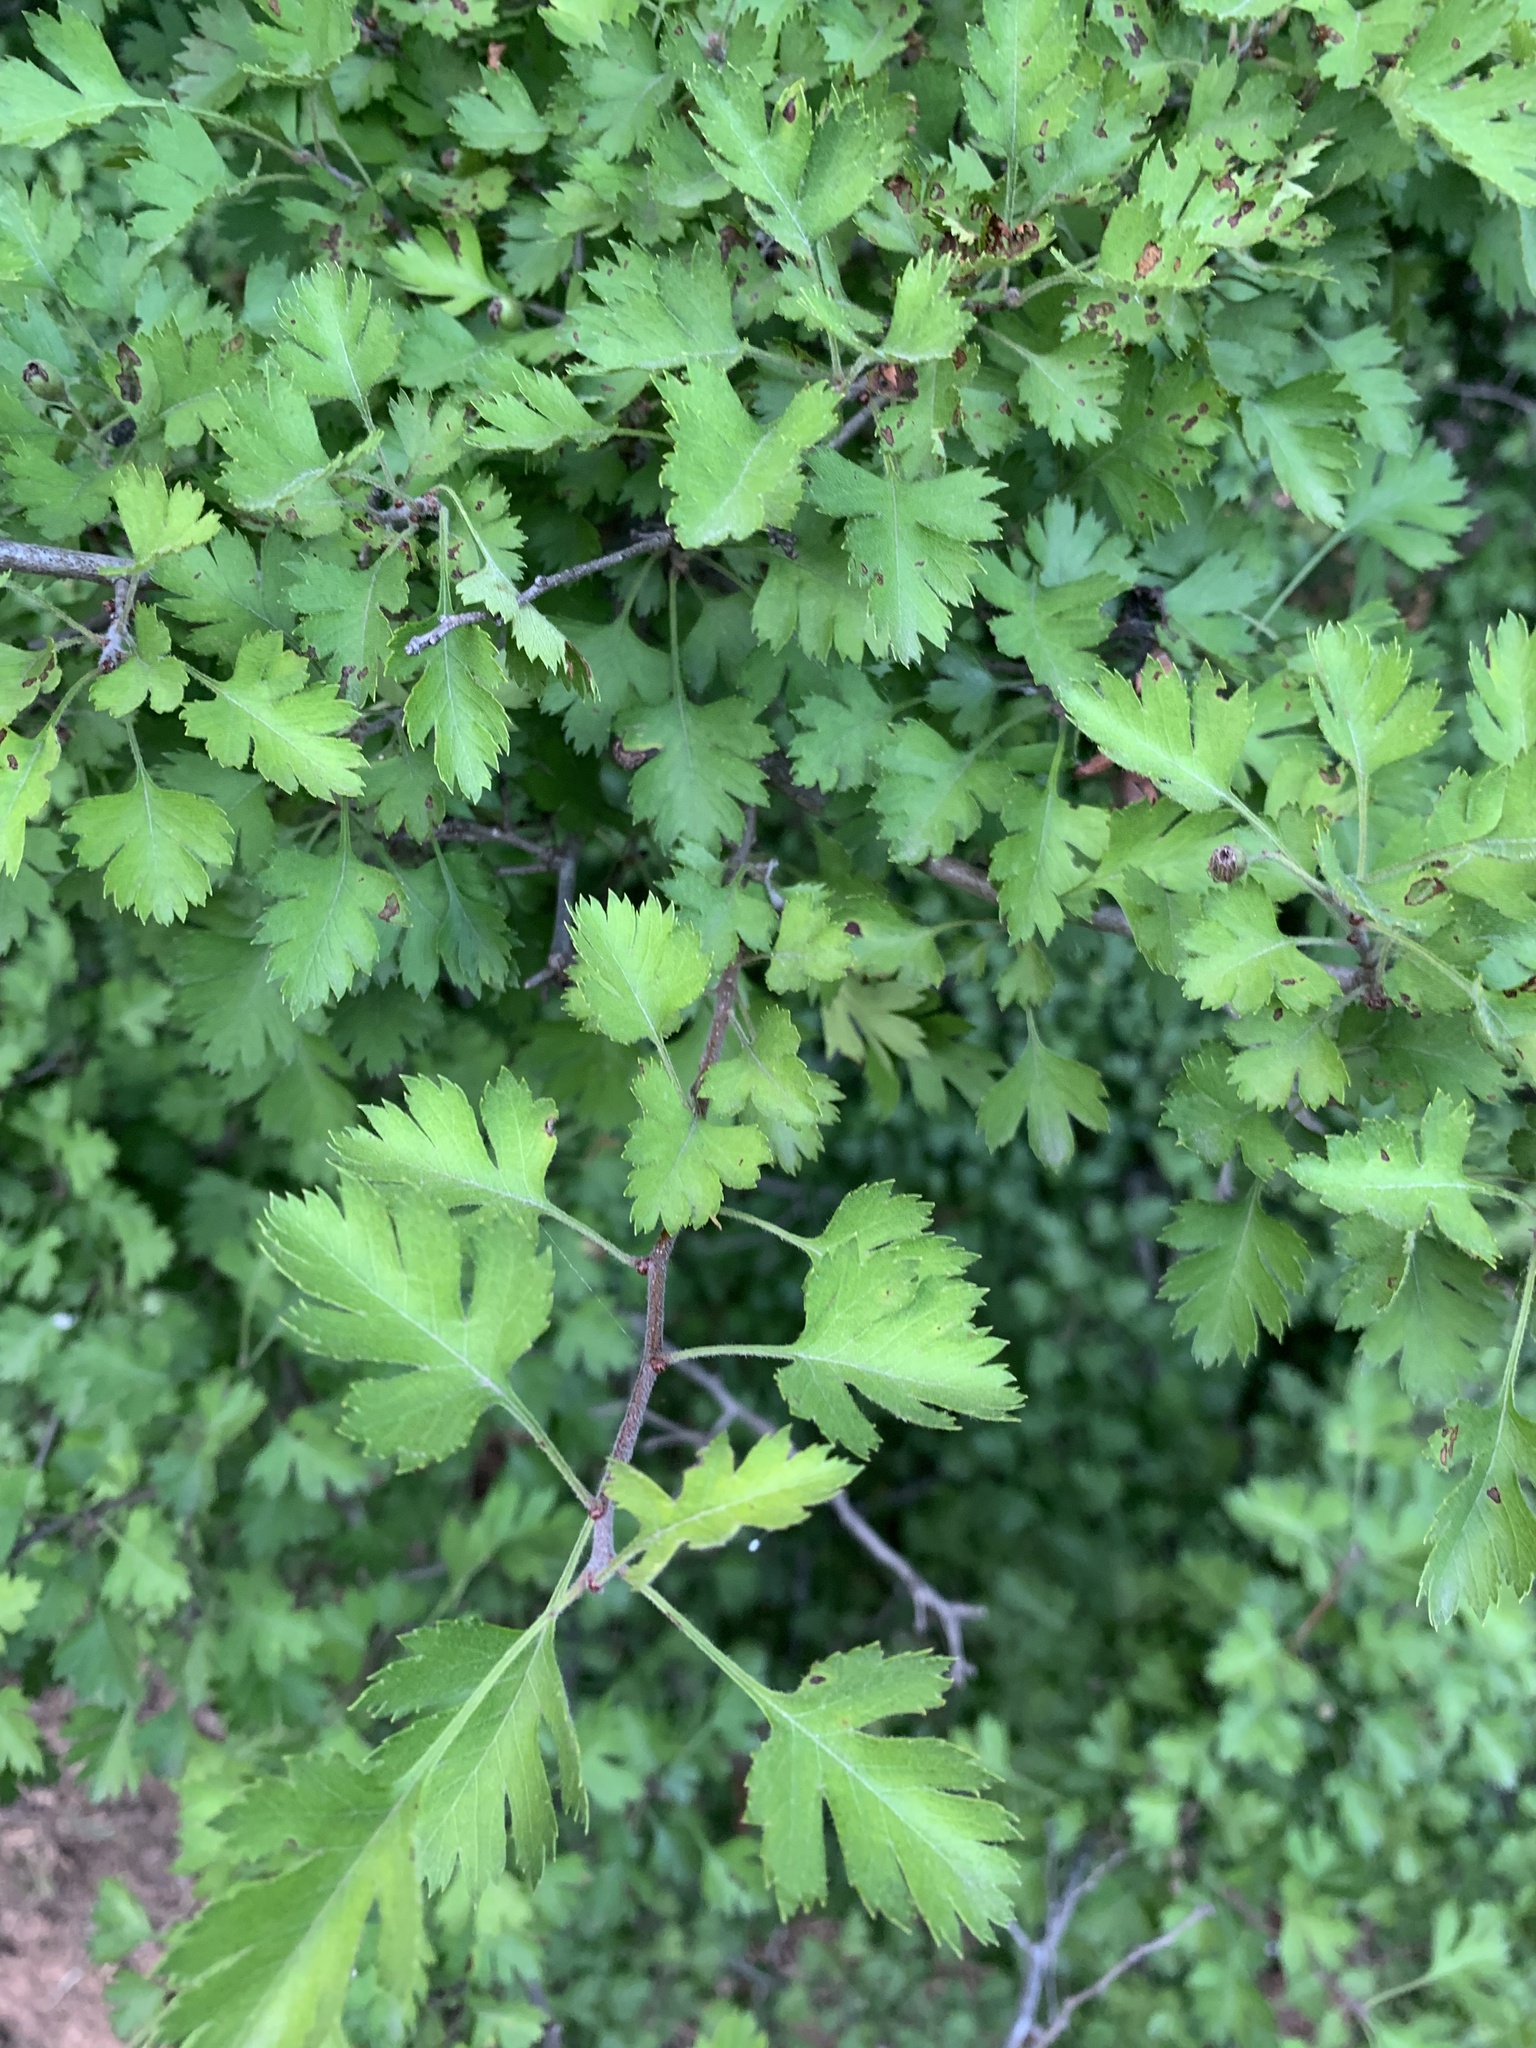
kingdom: Plantae
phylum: Tracheophyta
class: Magnoliopsida
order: Rosales
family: Rosaceae
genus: Crataegus
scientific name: Crataegus marshallii
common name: Parsley-hawthorn
